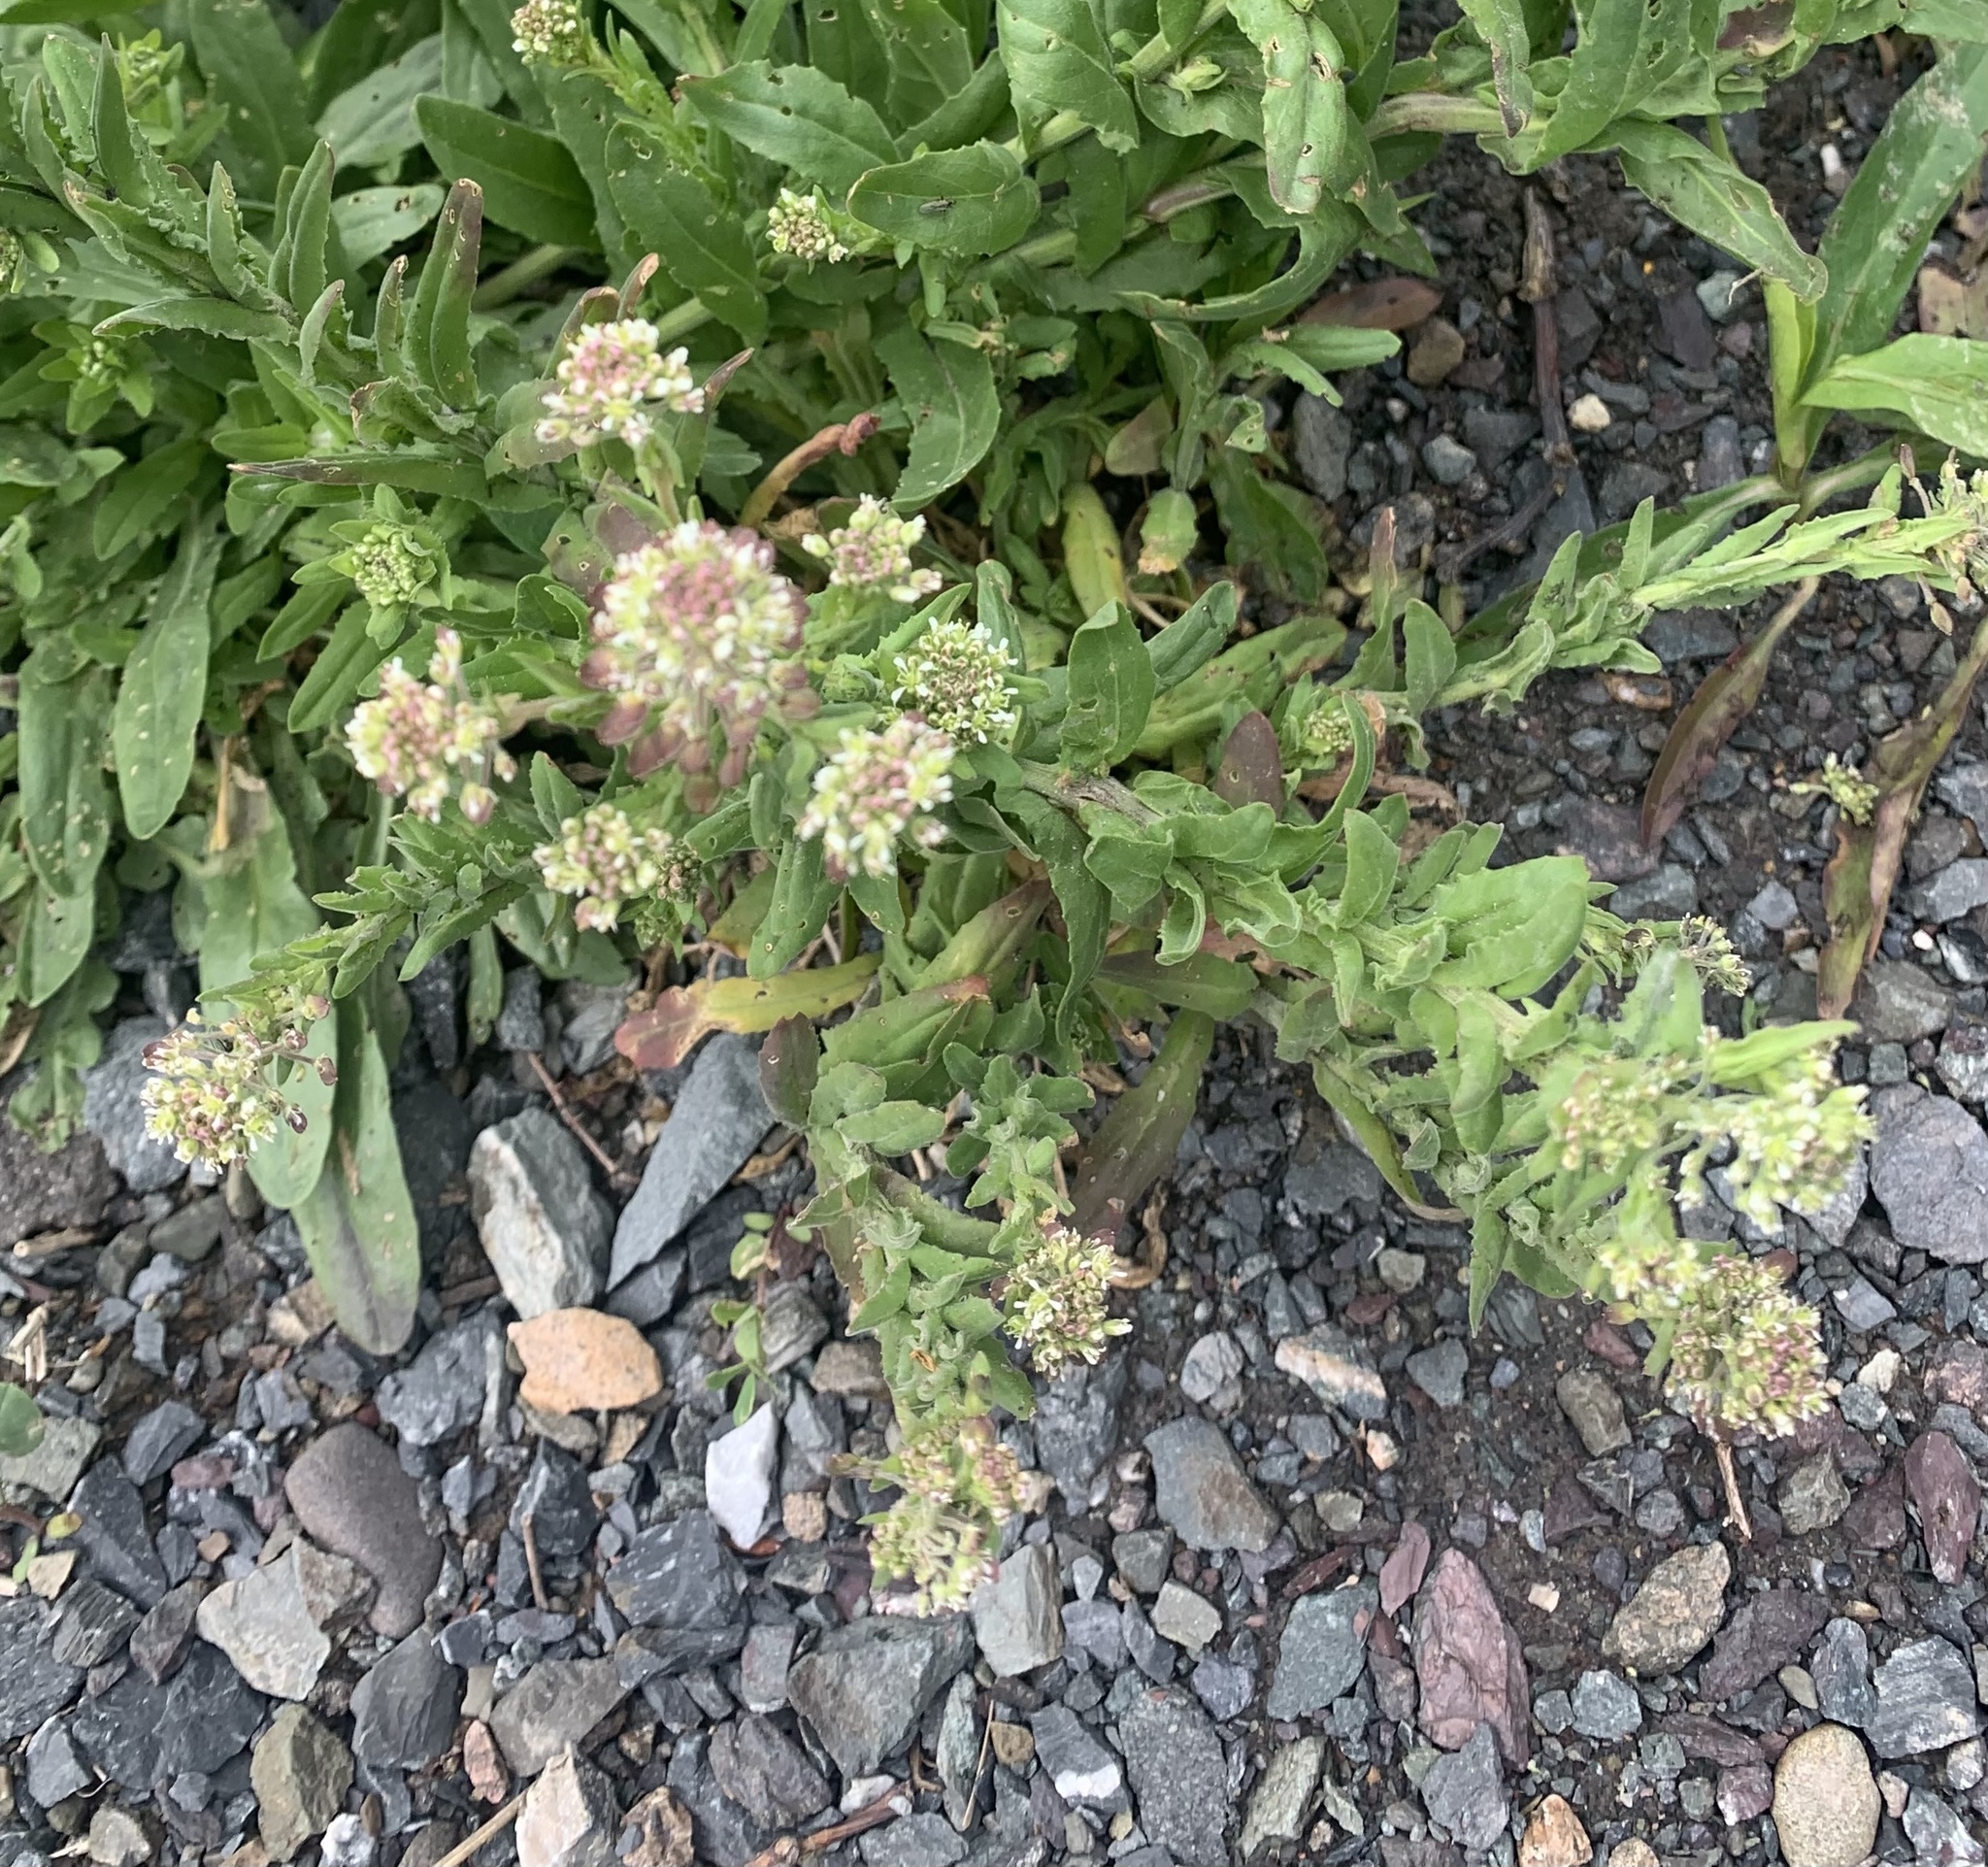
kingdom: Plantae
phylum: Tracheophyta
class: Magnoliopsida
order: Brassicales
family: Brassicaceae
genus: Lepidium
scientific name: Lepidium campestre
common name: Field pepperwort
